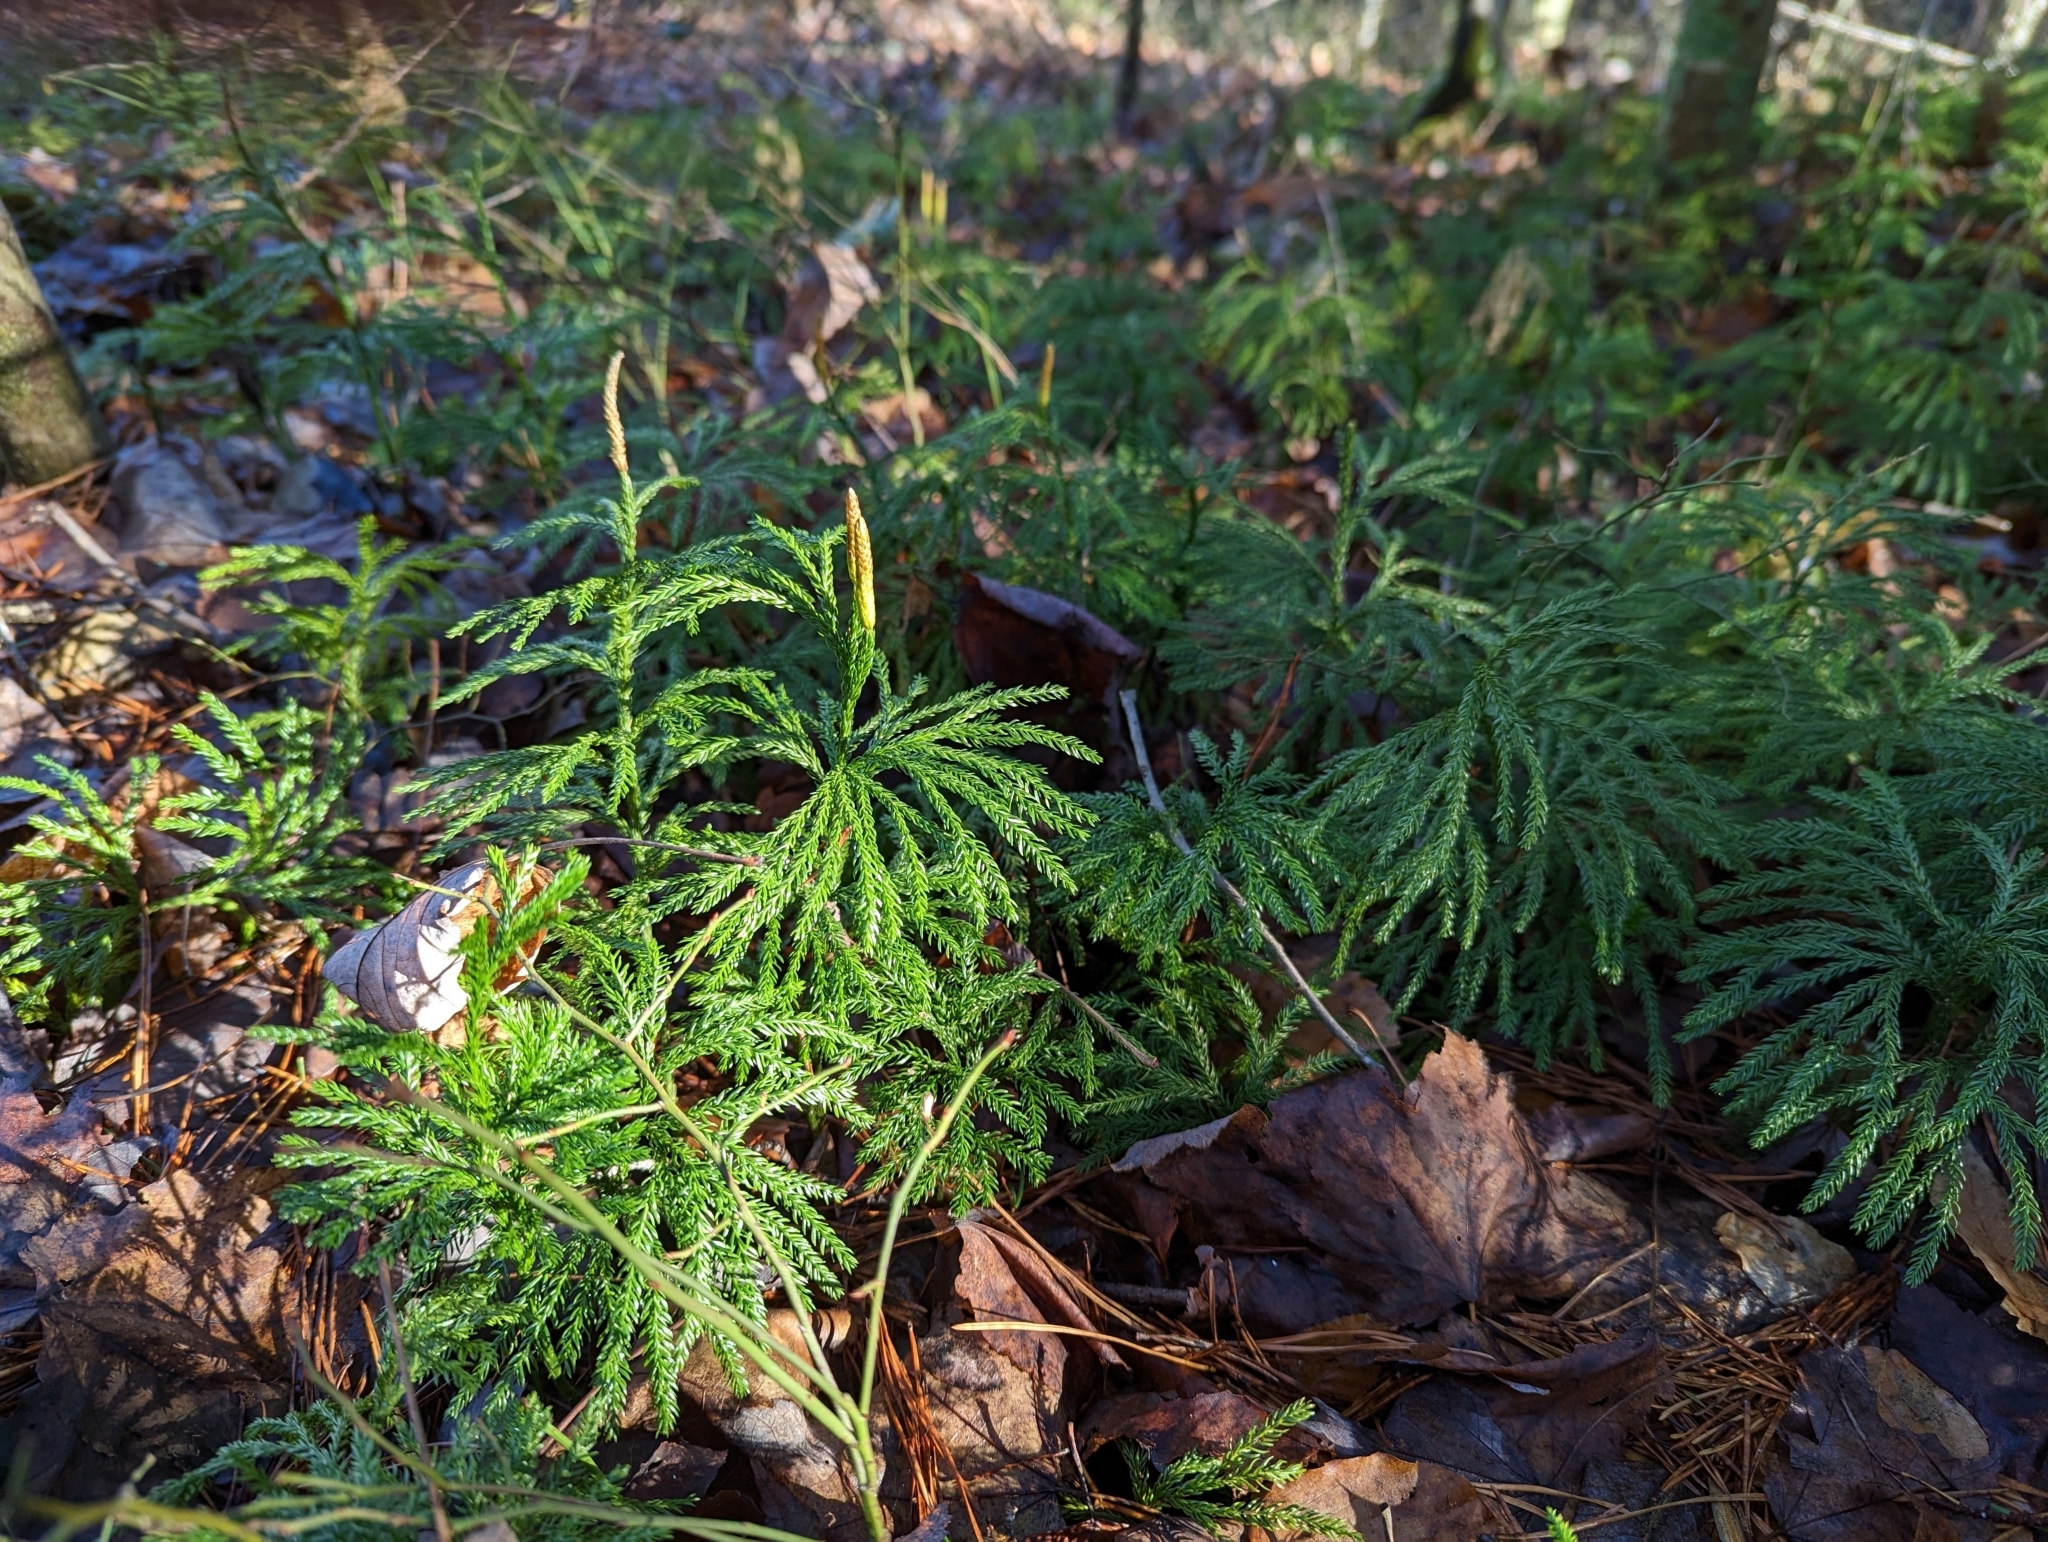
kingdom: Plantae
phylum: Tracheophyta
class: Lycopodiopsida
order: Lycopodiales
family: Lycopodiaceae
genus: Dendrolycopodium
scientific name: Dendrolycopodium obscurum
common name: Common ground-pine
